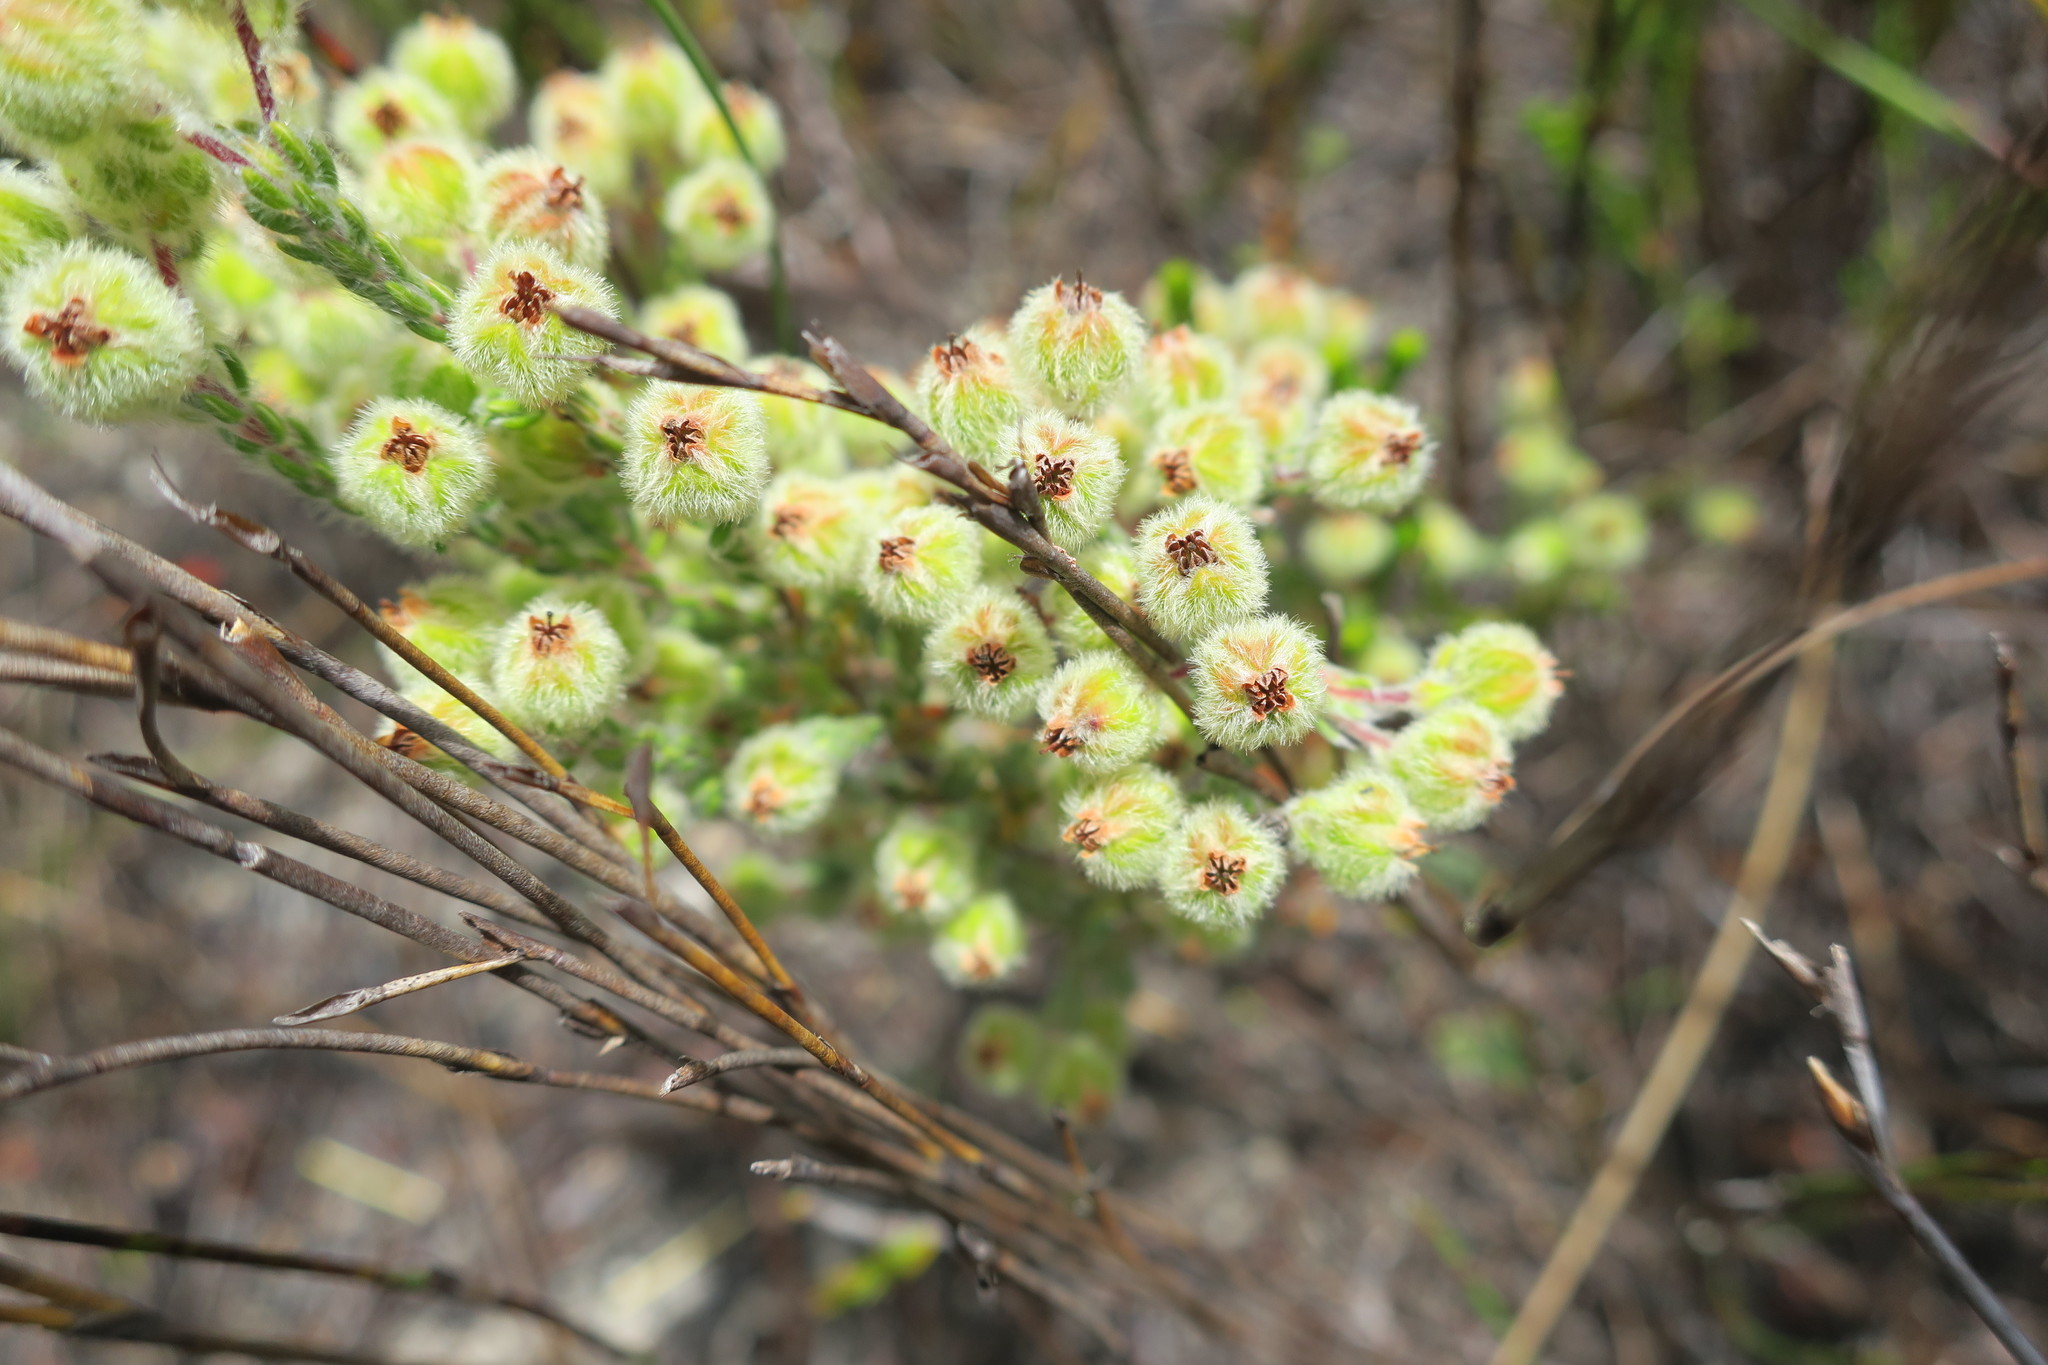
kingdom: Plantae
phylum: Tracheophyta
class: Magnoliopsida
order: Ericales
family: Ericaceae
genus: Erica
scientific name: Erica capitata
